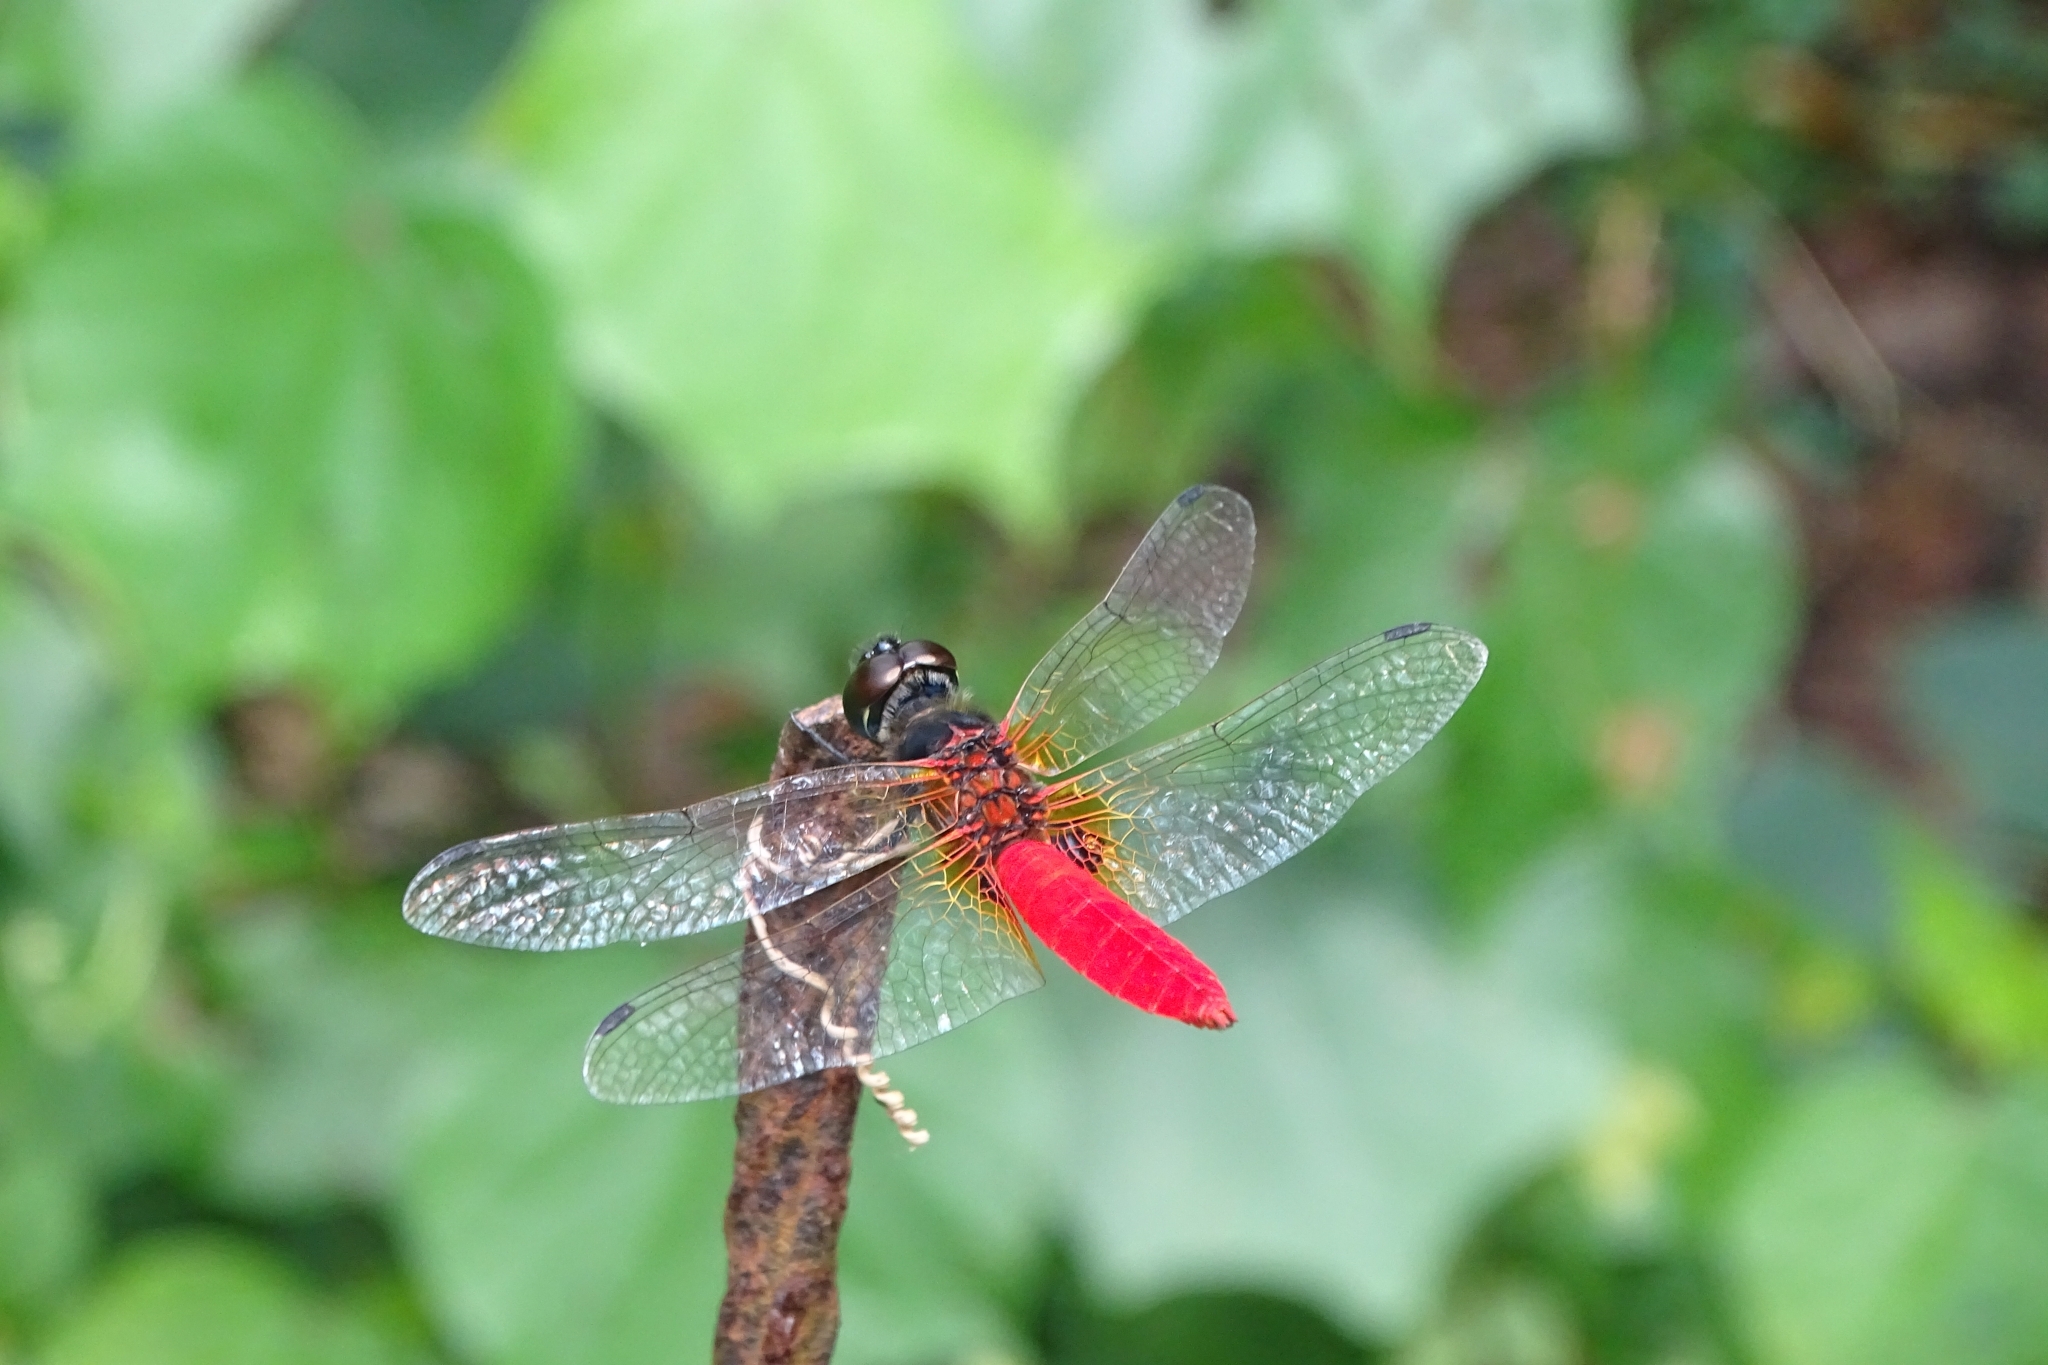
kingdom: Animalia
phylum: Arthropoda
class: Insecta
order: Odonata
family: Libellulidae
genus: Aethriamanta
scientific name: Aethriamanta brevipennis
